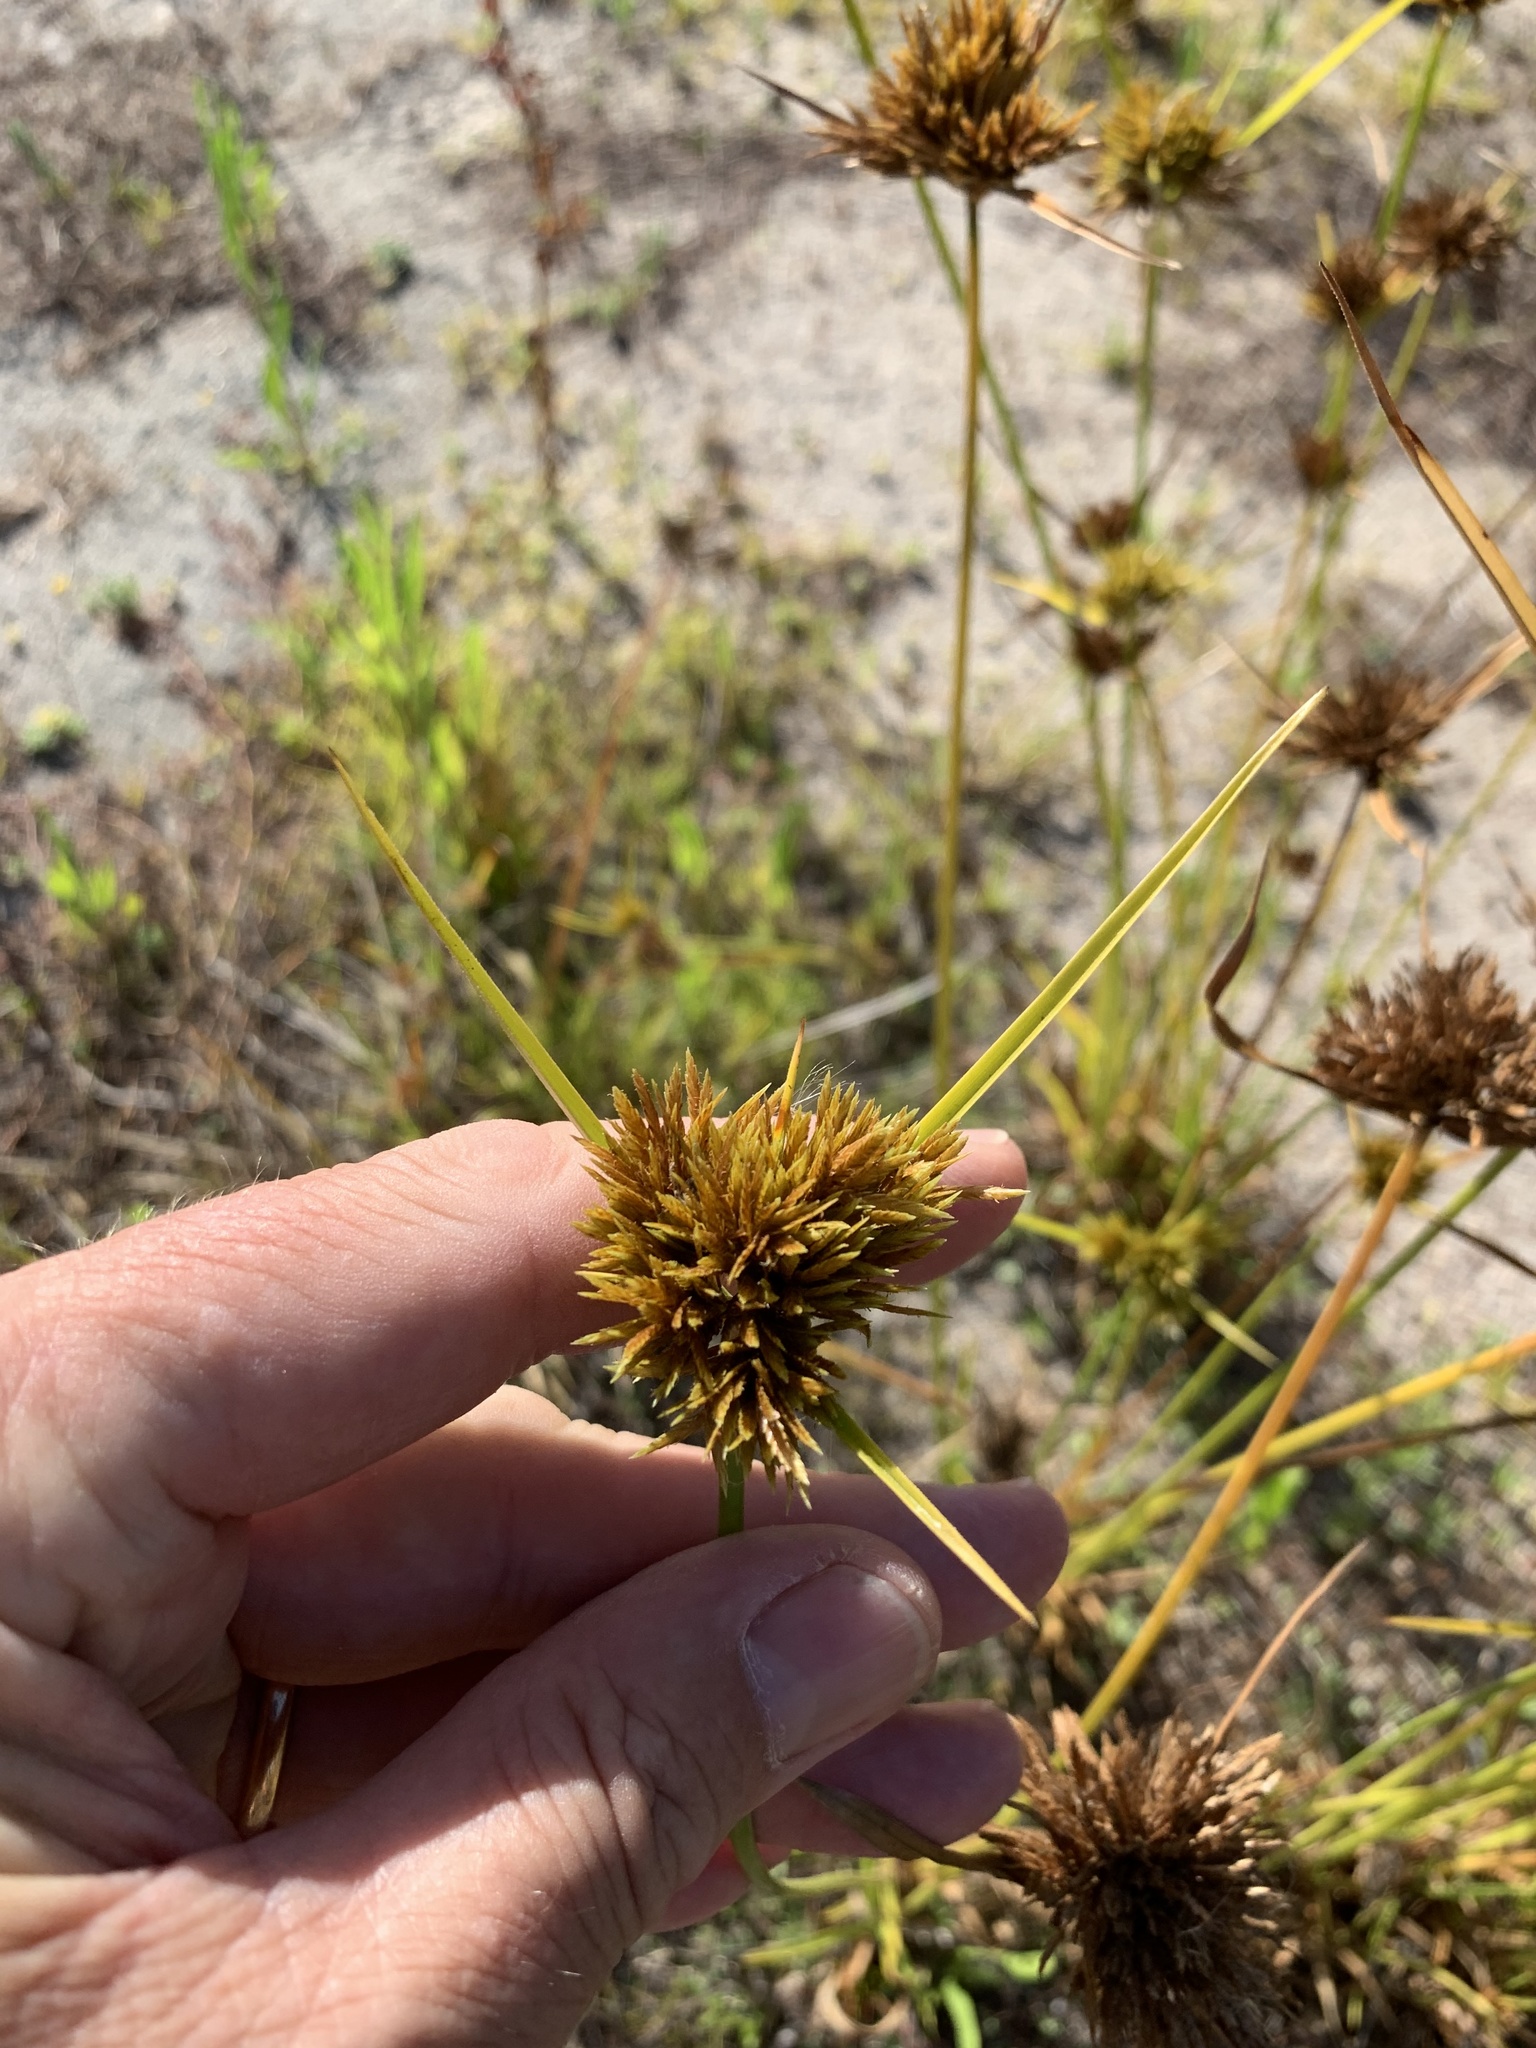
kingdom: Plantae
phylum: Tracheophyta
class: Liliopsida
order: Poales
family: Cyperaceae
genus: Cyperus
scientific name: Cyperus polystachyos
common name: Bunchy flat sedge
